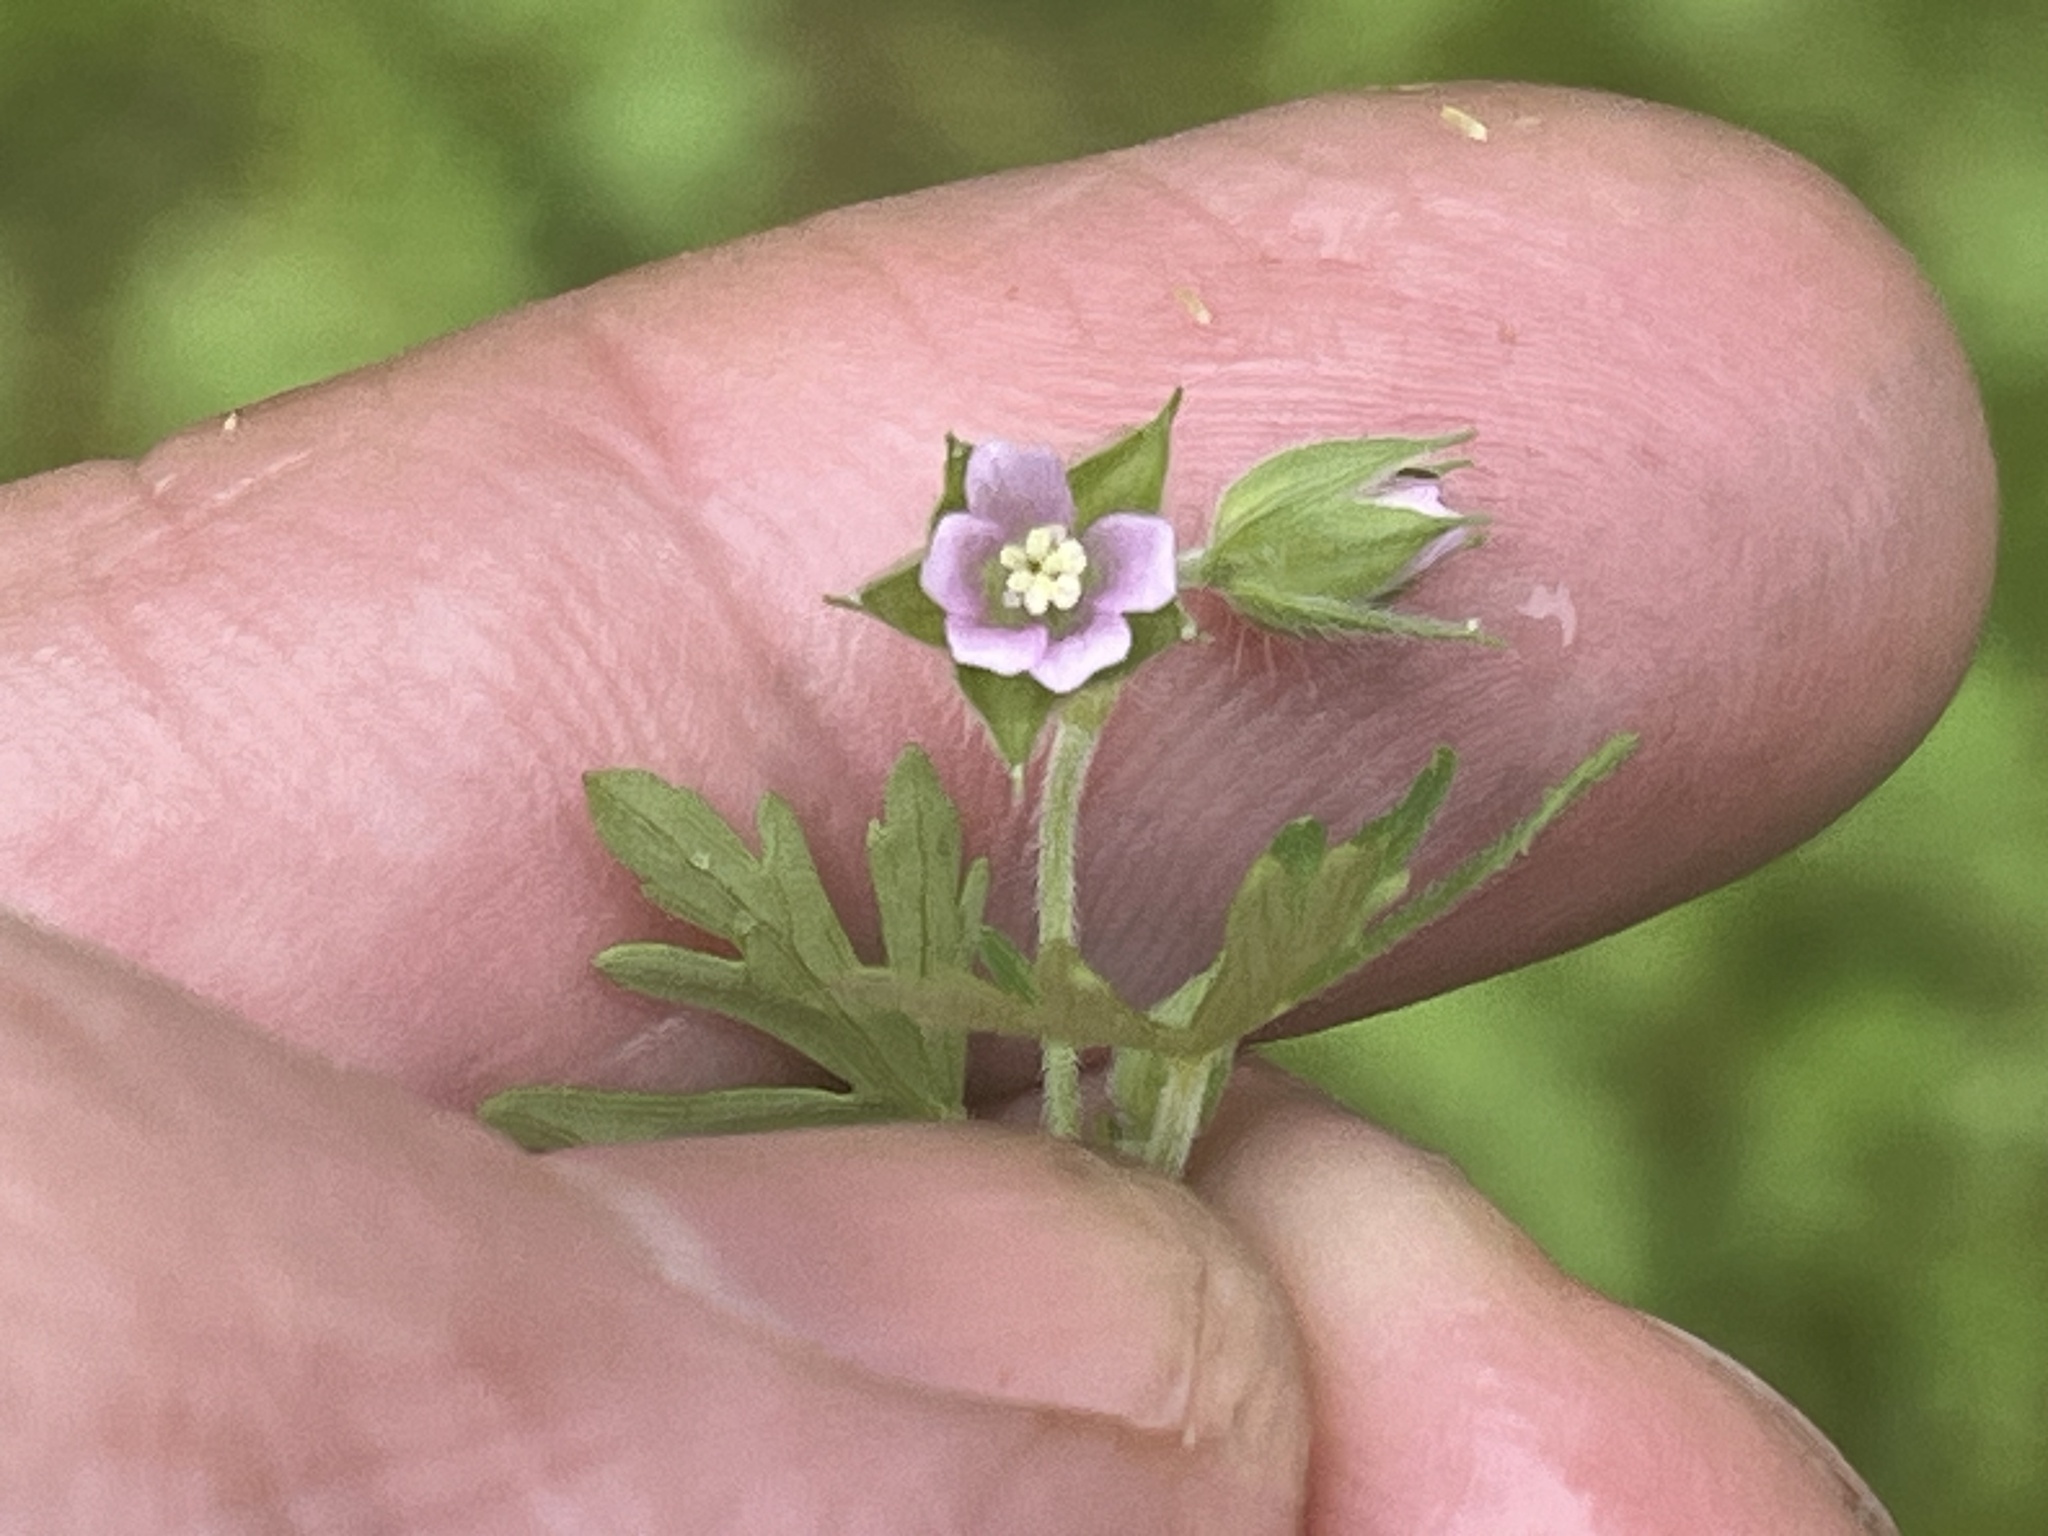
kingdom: Plantae
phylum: Tracheophyta
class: Magnoliopsida
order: Geraniales
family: Geraniaceae
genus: Geranium
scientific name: Geranium carolinianum
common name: Carolina crane's-bill
